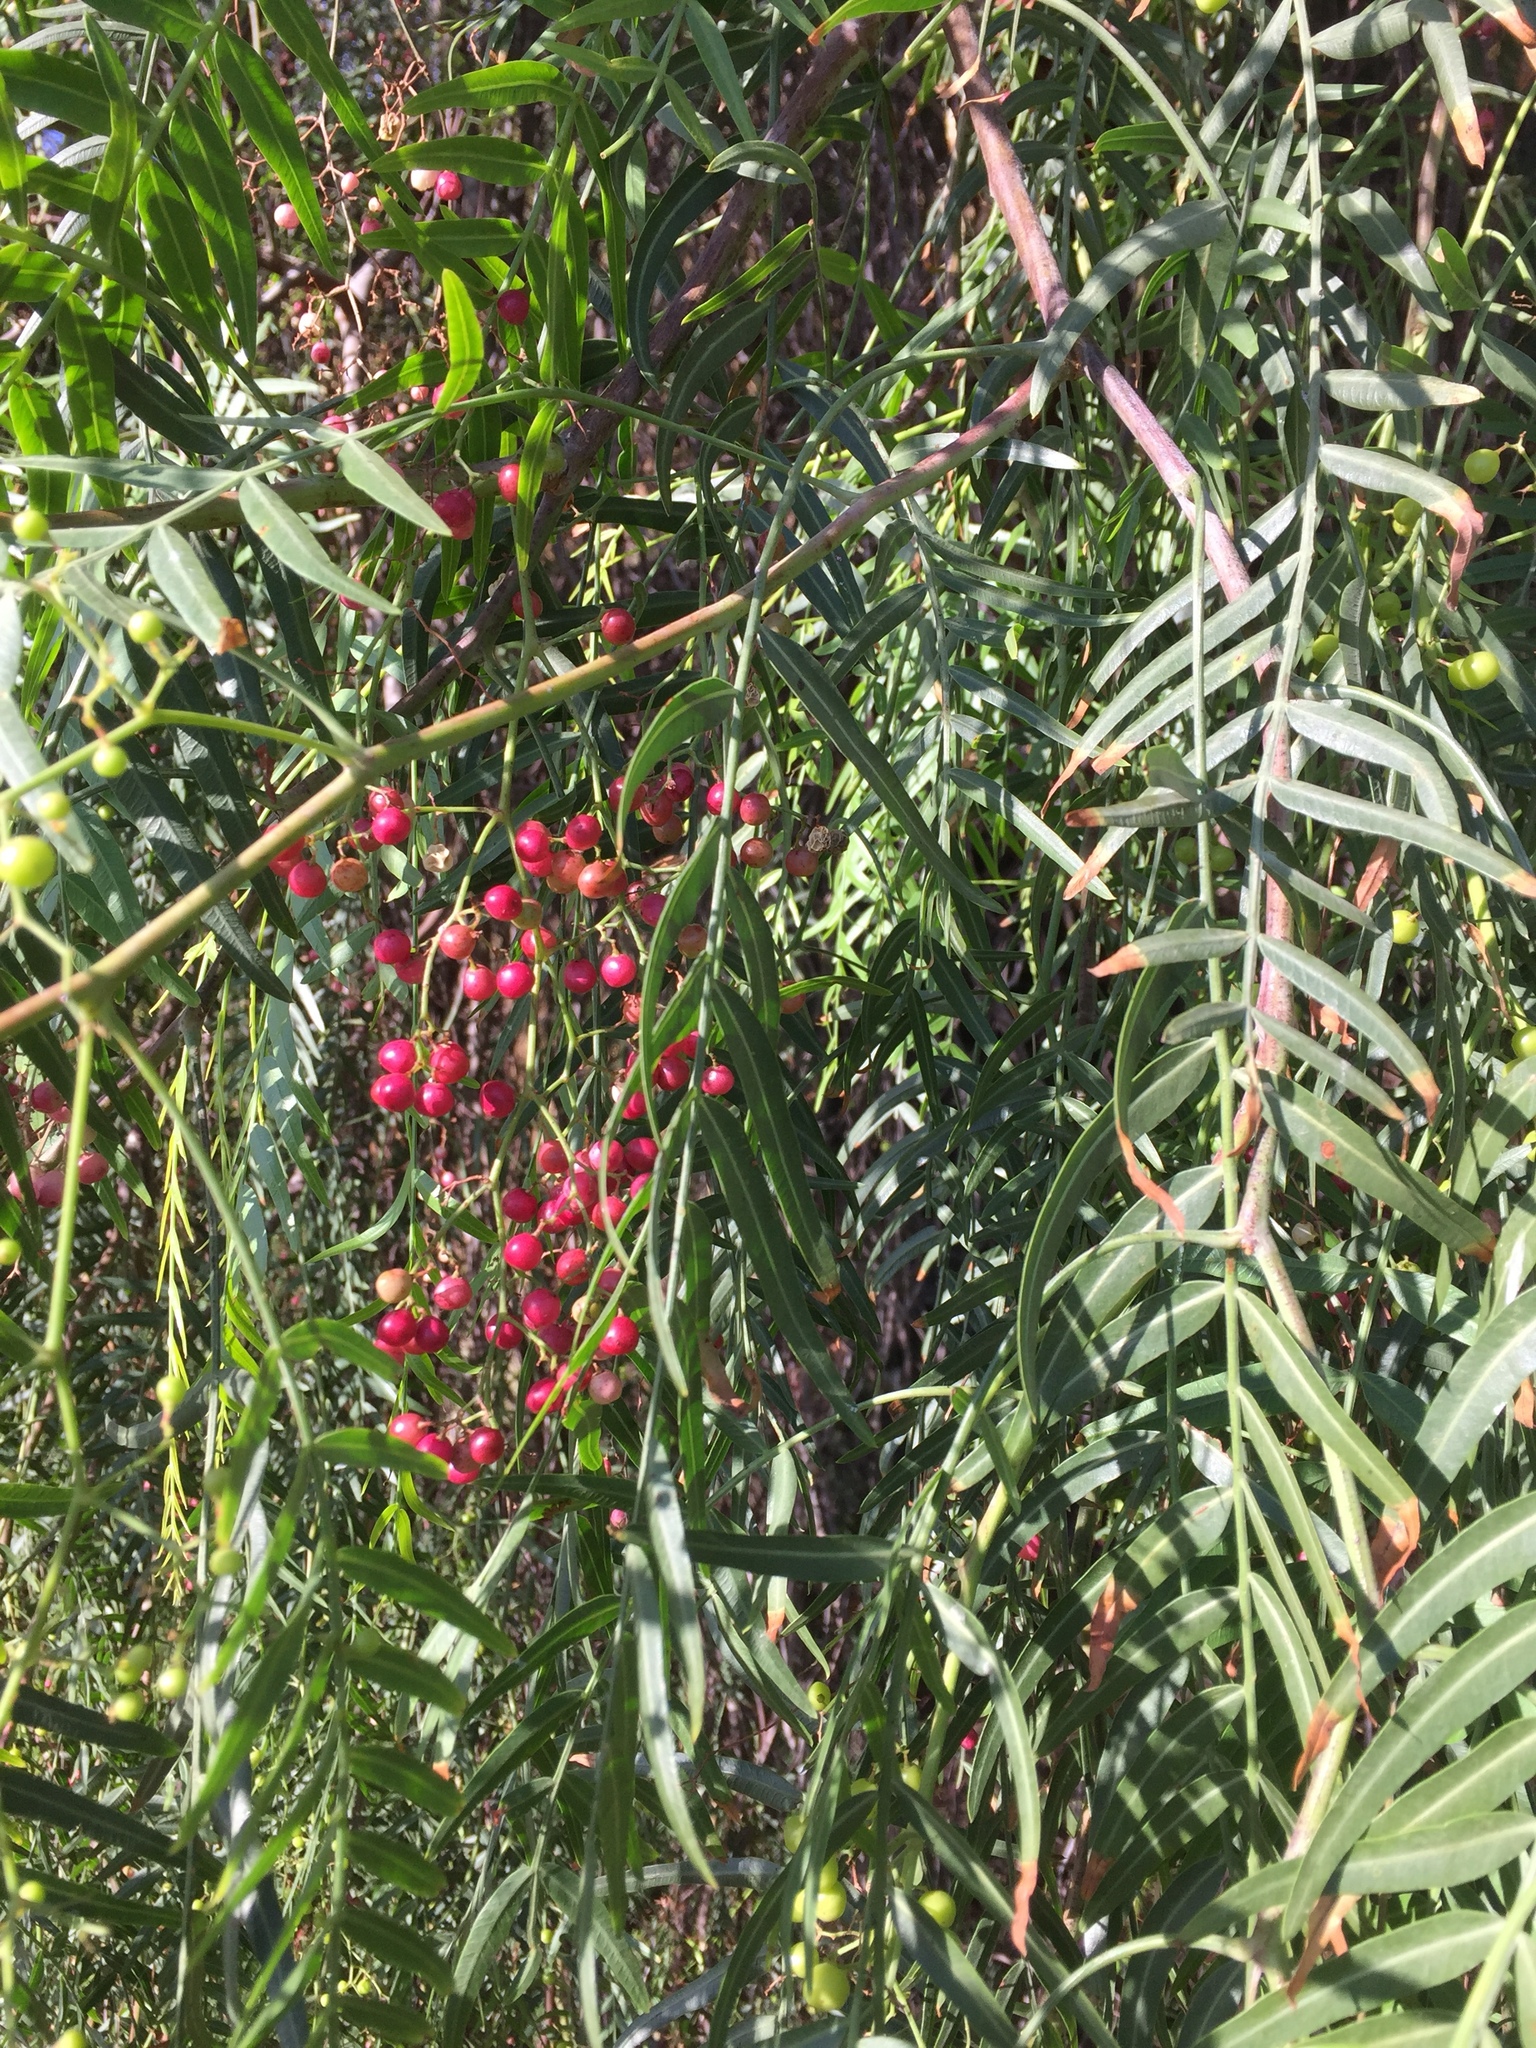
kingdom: Plantae
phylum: Tracheophyta
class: Magnoliopsida
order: Sapindales
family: Anacardiaceae
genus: Schinus
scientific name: Schinus molle
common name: Peruvian peppertree
